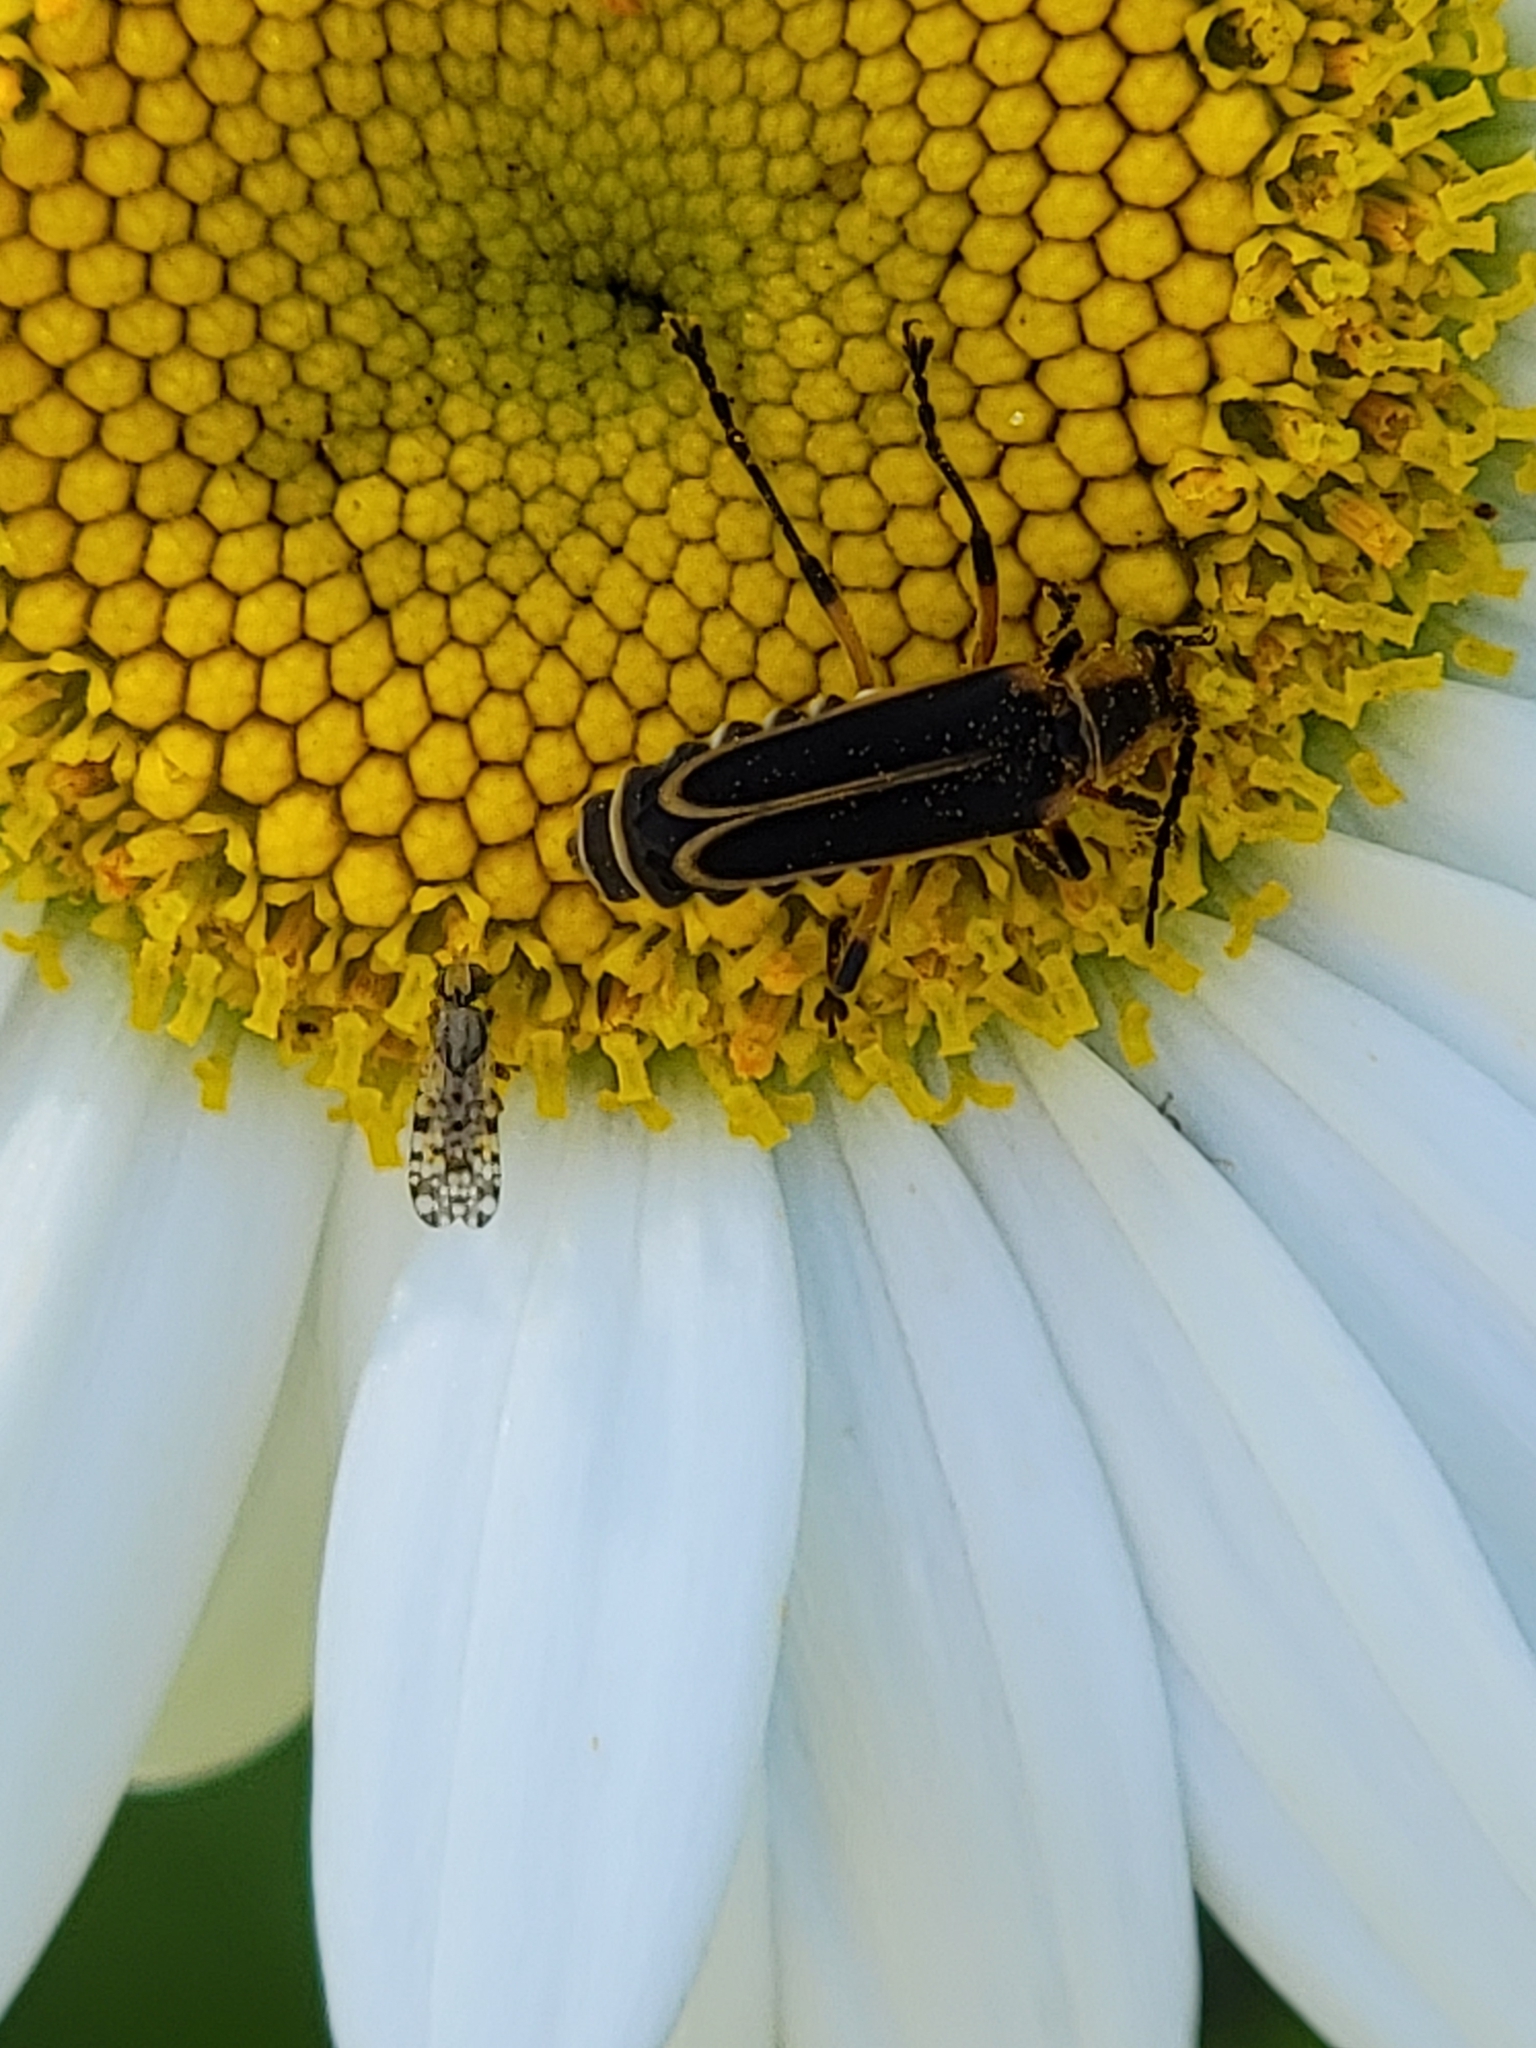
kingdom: Animalia
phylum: Arthropoda
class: Insecta
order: Coleoptera
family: Cantharidae
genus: Chauliognathus
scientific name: Chauliognathus marginatus
